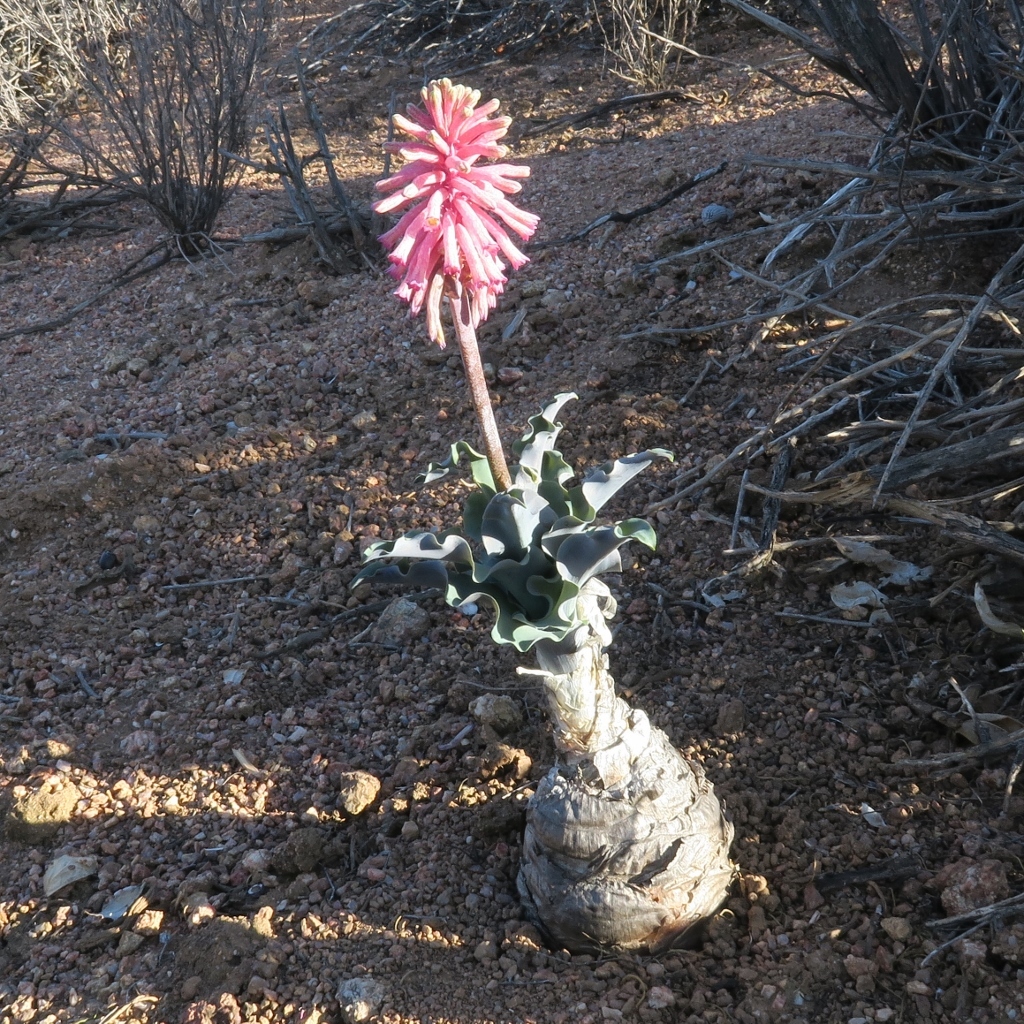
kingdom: Plantae
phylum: Tracheophyta
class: Liliopsida
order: Asparagales
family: Asparagaceae
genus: Veltheimia
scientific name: Veltheimia capensis
